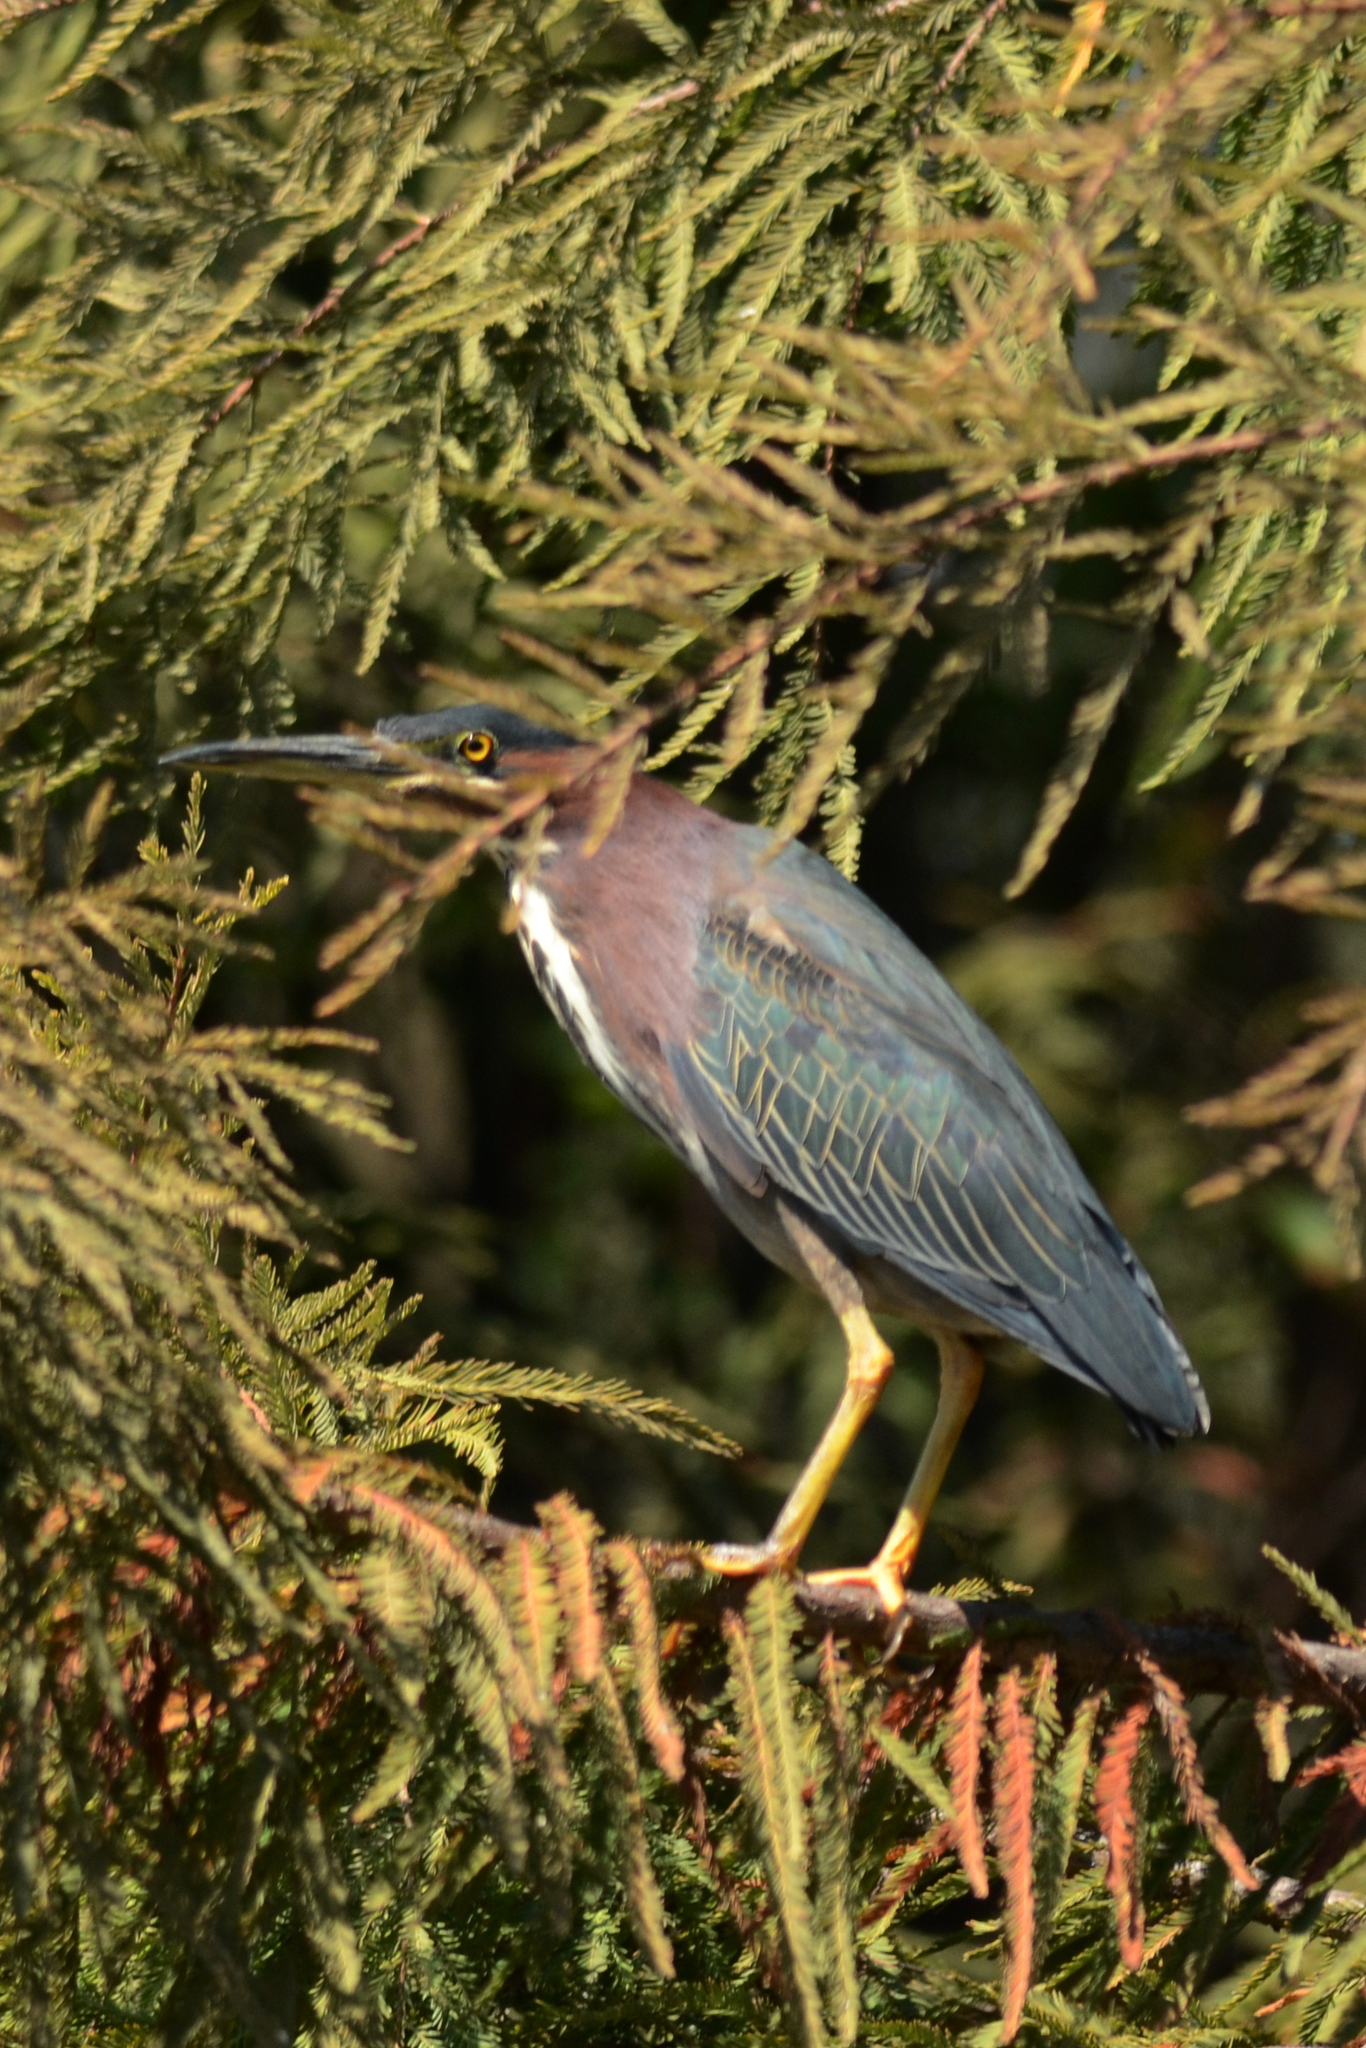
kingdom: Animalia
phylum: Chordata
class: Aves
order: Pelecaniformes
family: Ardeidae
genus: Butorides
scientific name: Butorides virescens
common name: Green heron
